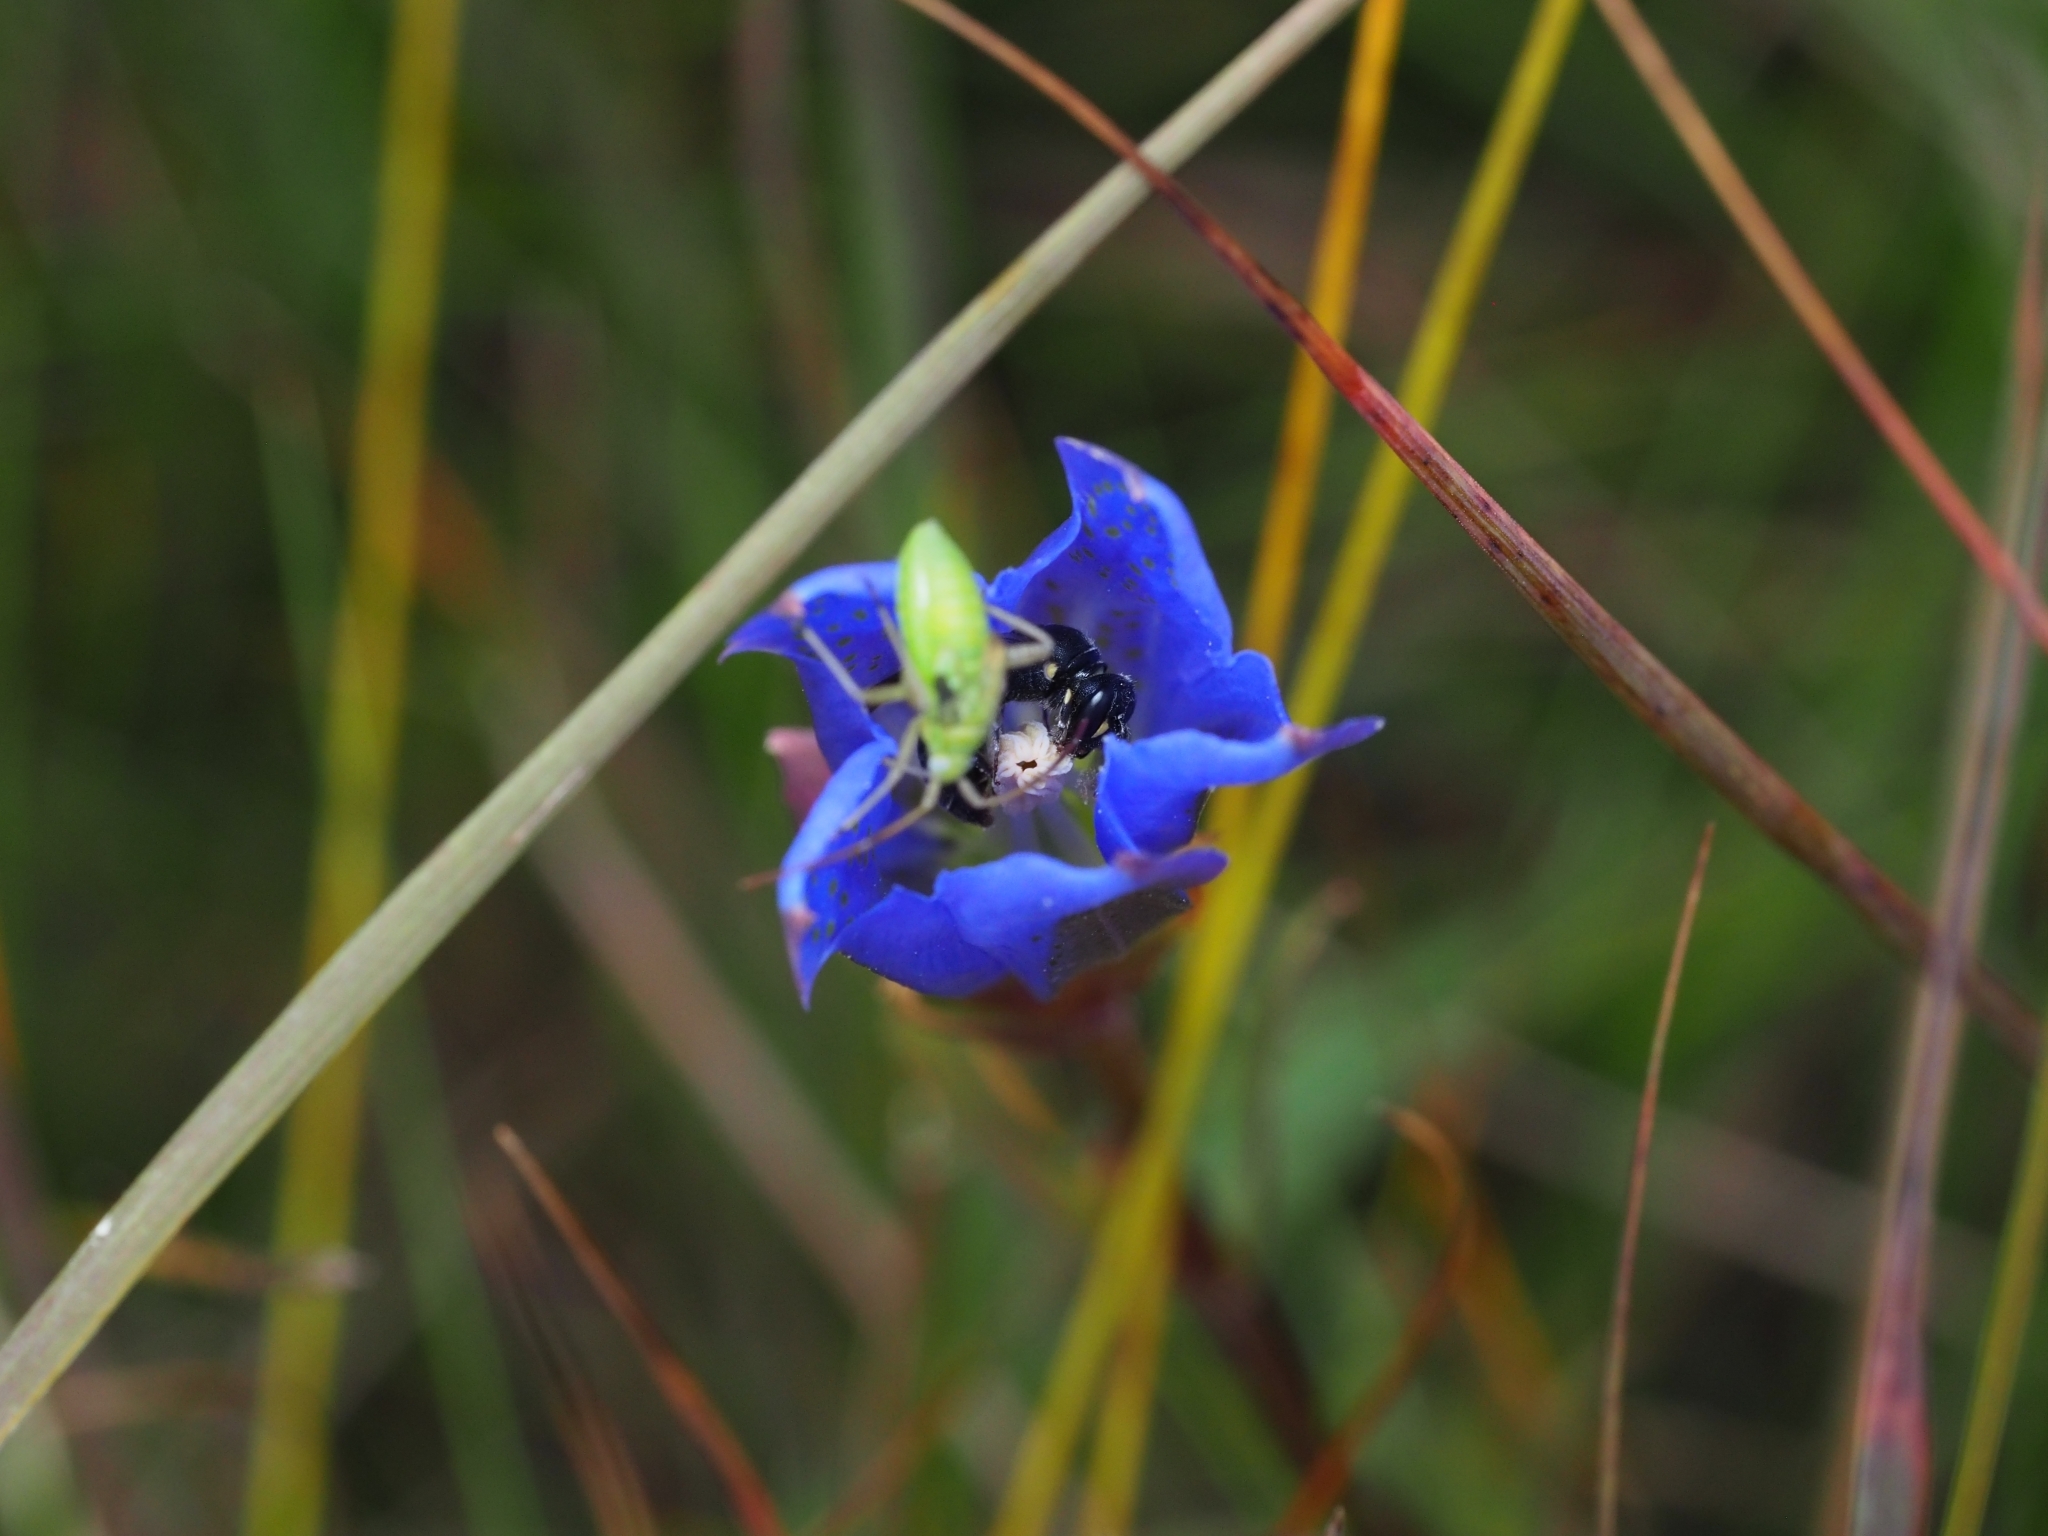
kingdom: Plantae
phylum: Tracheophyta
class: Magnoliopsida
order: Gentianales
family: Gentianaceae
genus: Gentiana
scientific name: Gentiana pneumonanthe
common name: Marsh gentian
